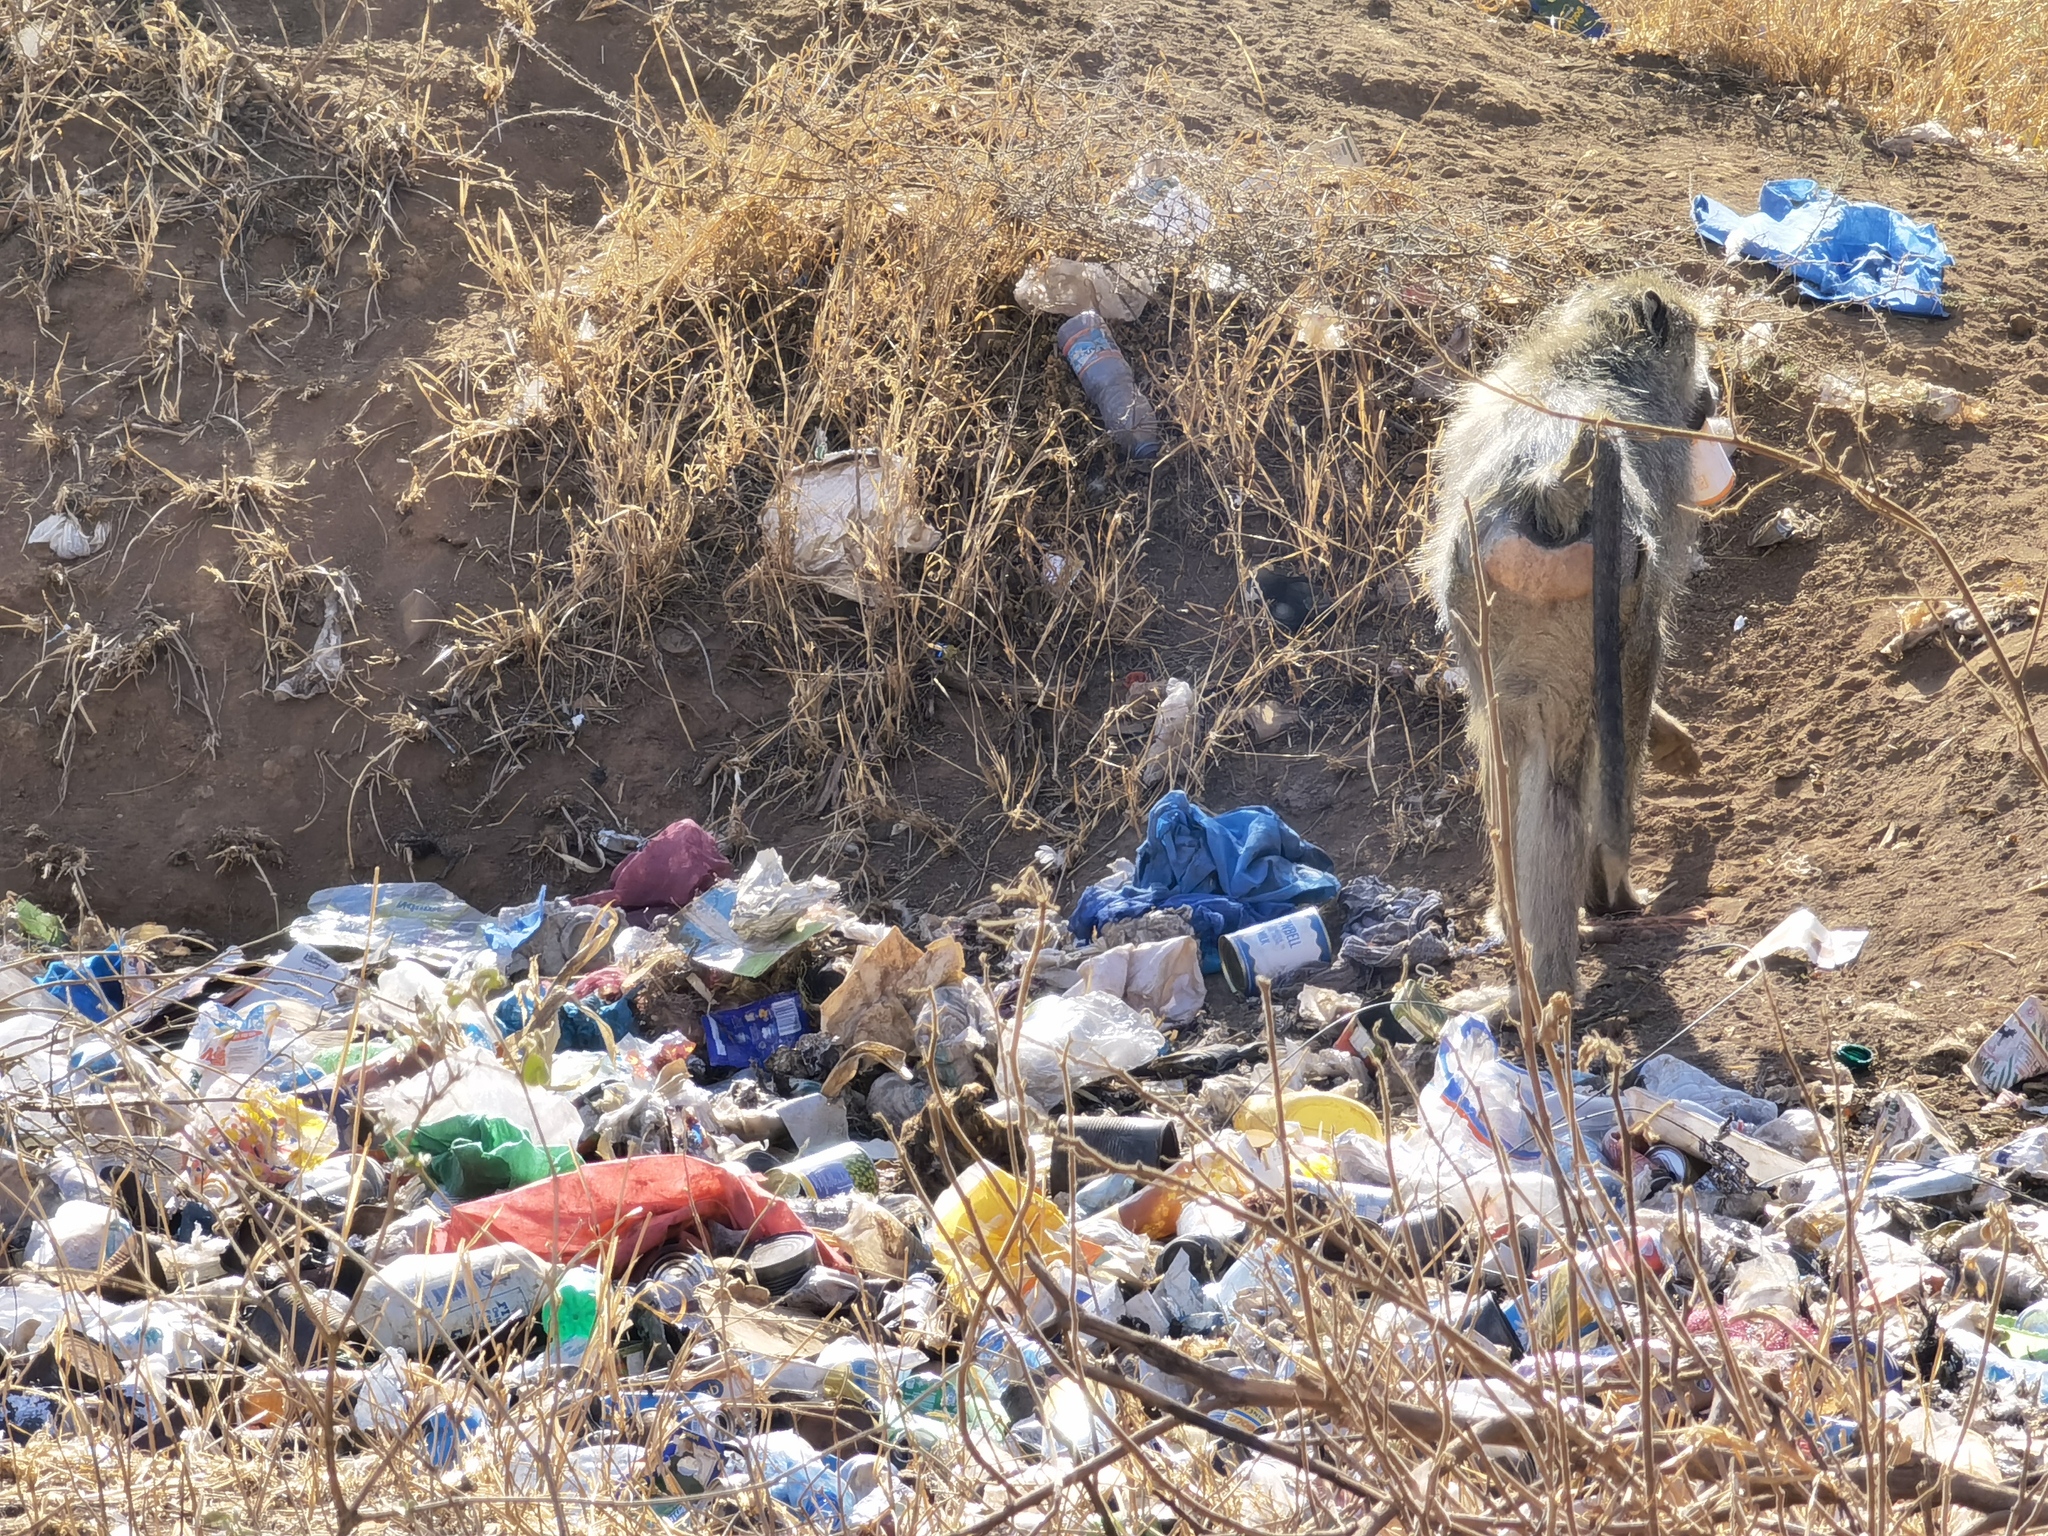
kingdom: Animalia
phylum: Chordata
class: Mammalia
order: Primates
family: Cercopithecidae
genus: Papio
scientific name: Papio cynocephalus
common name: Yellow baboon
